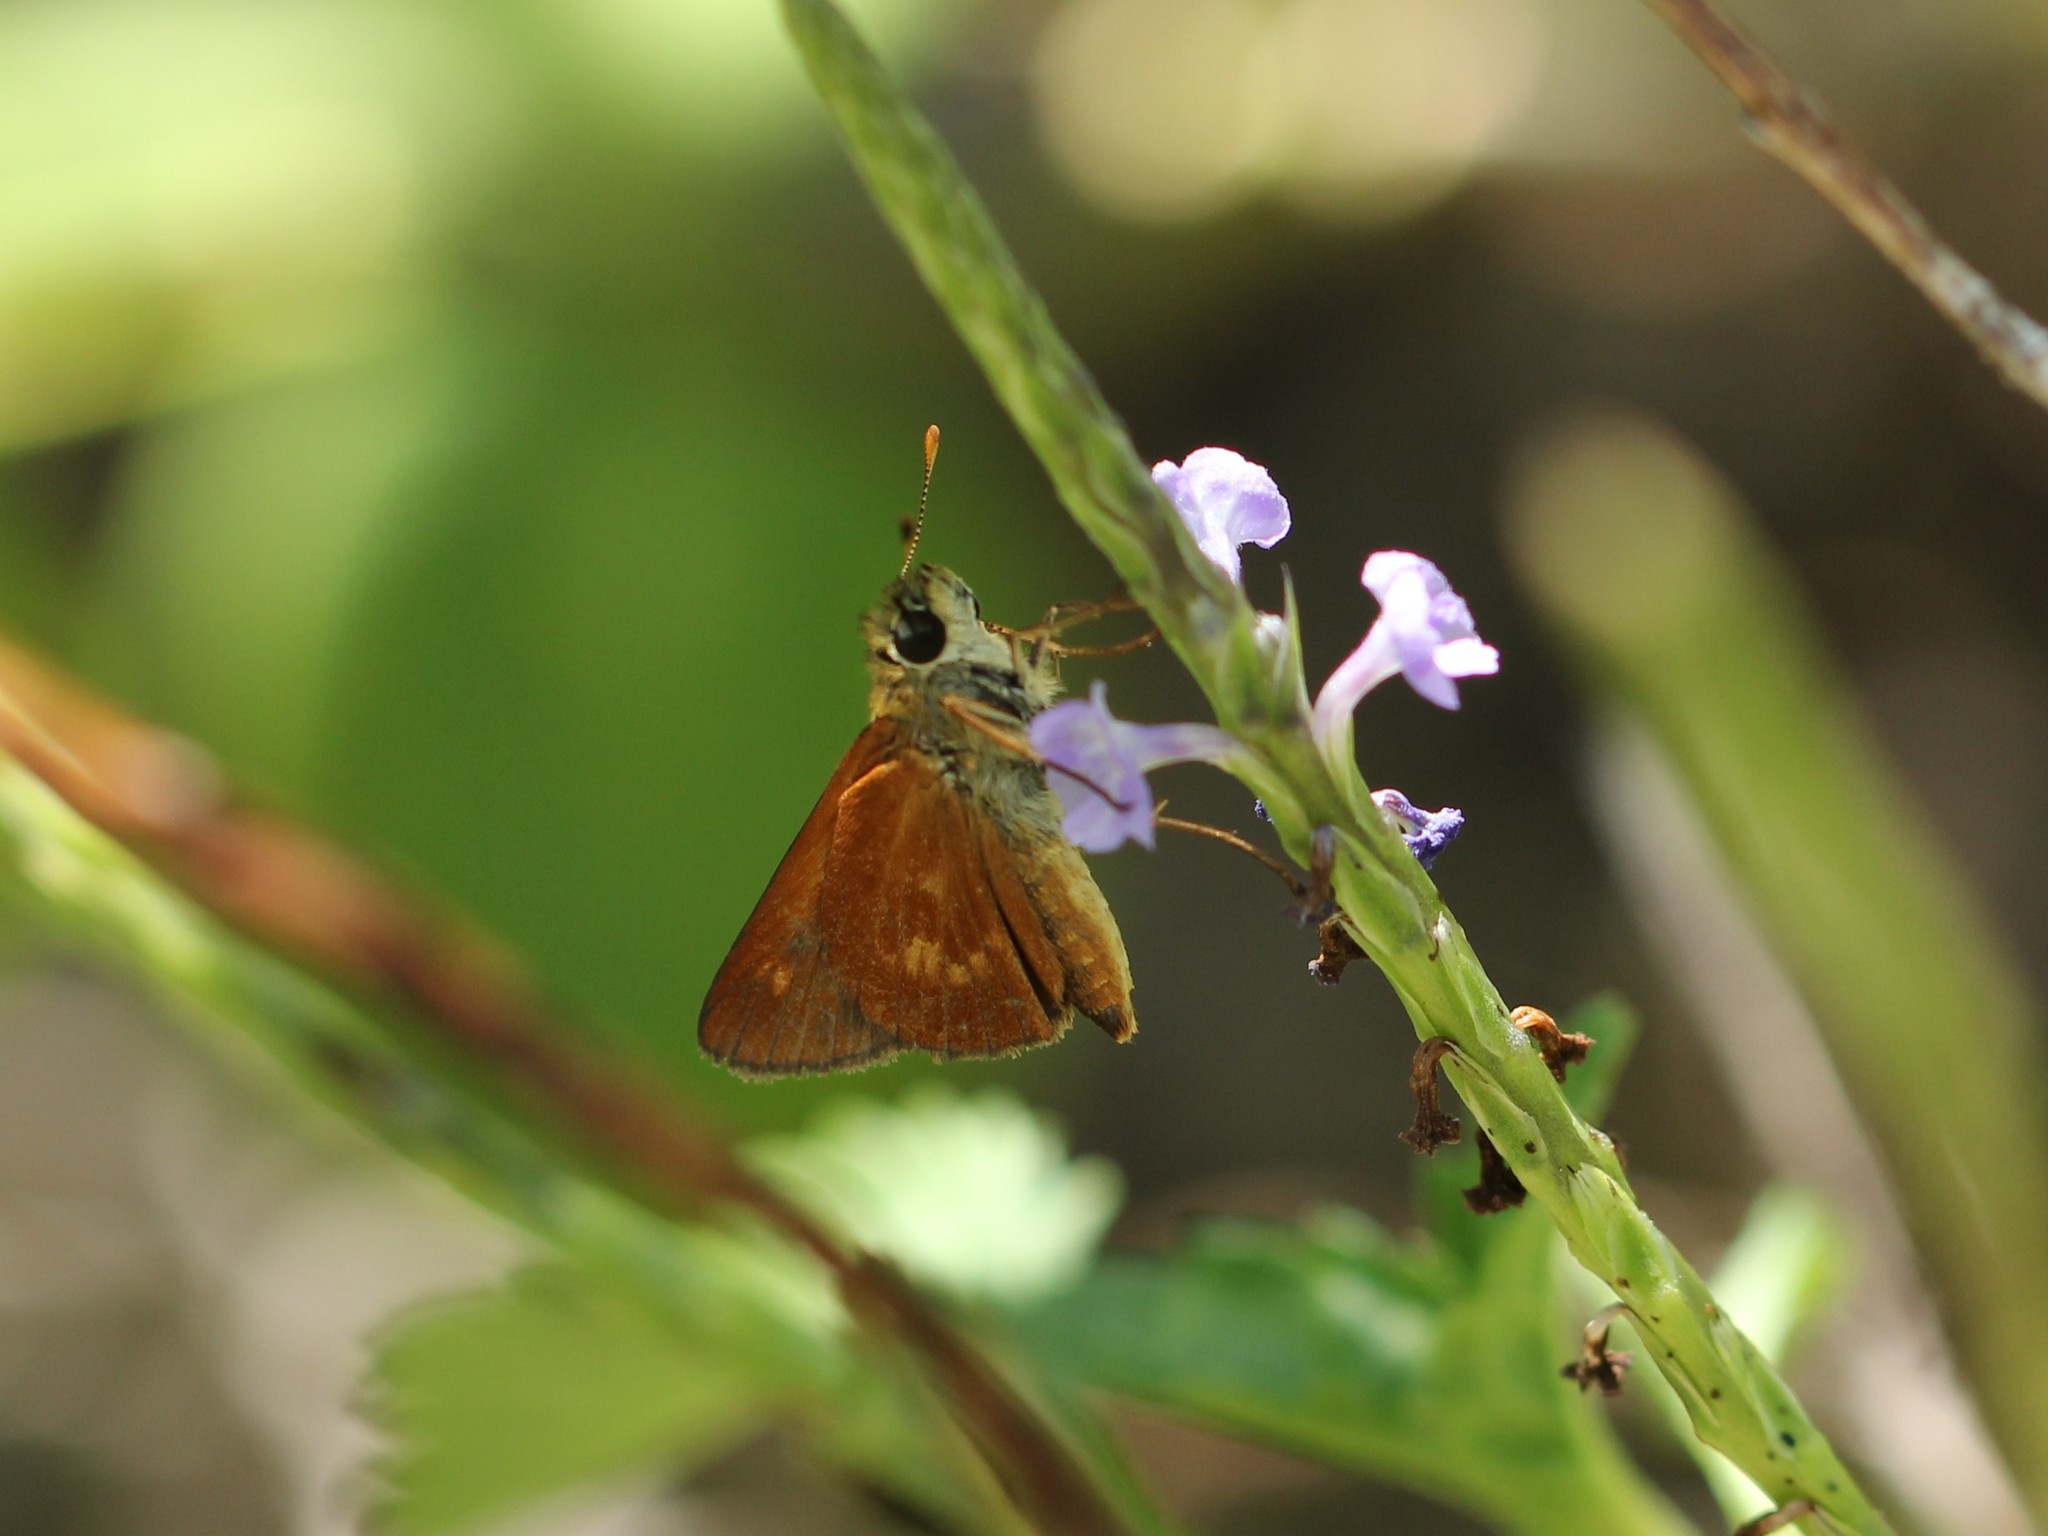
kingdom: Animalia
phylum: Arthropoda
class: Insecta
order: Lepidoptera
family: Hesperiidae
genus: Polites
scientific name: Polites otho
